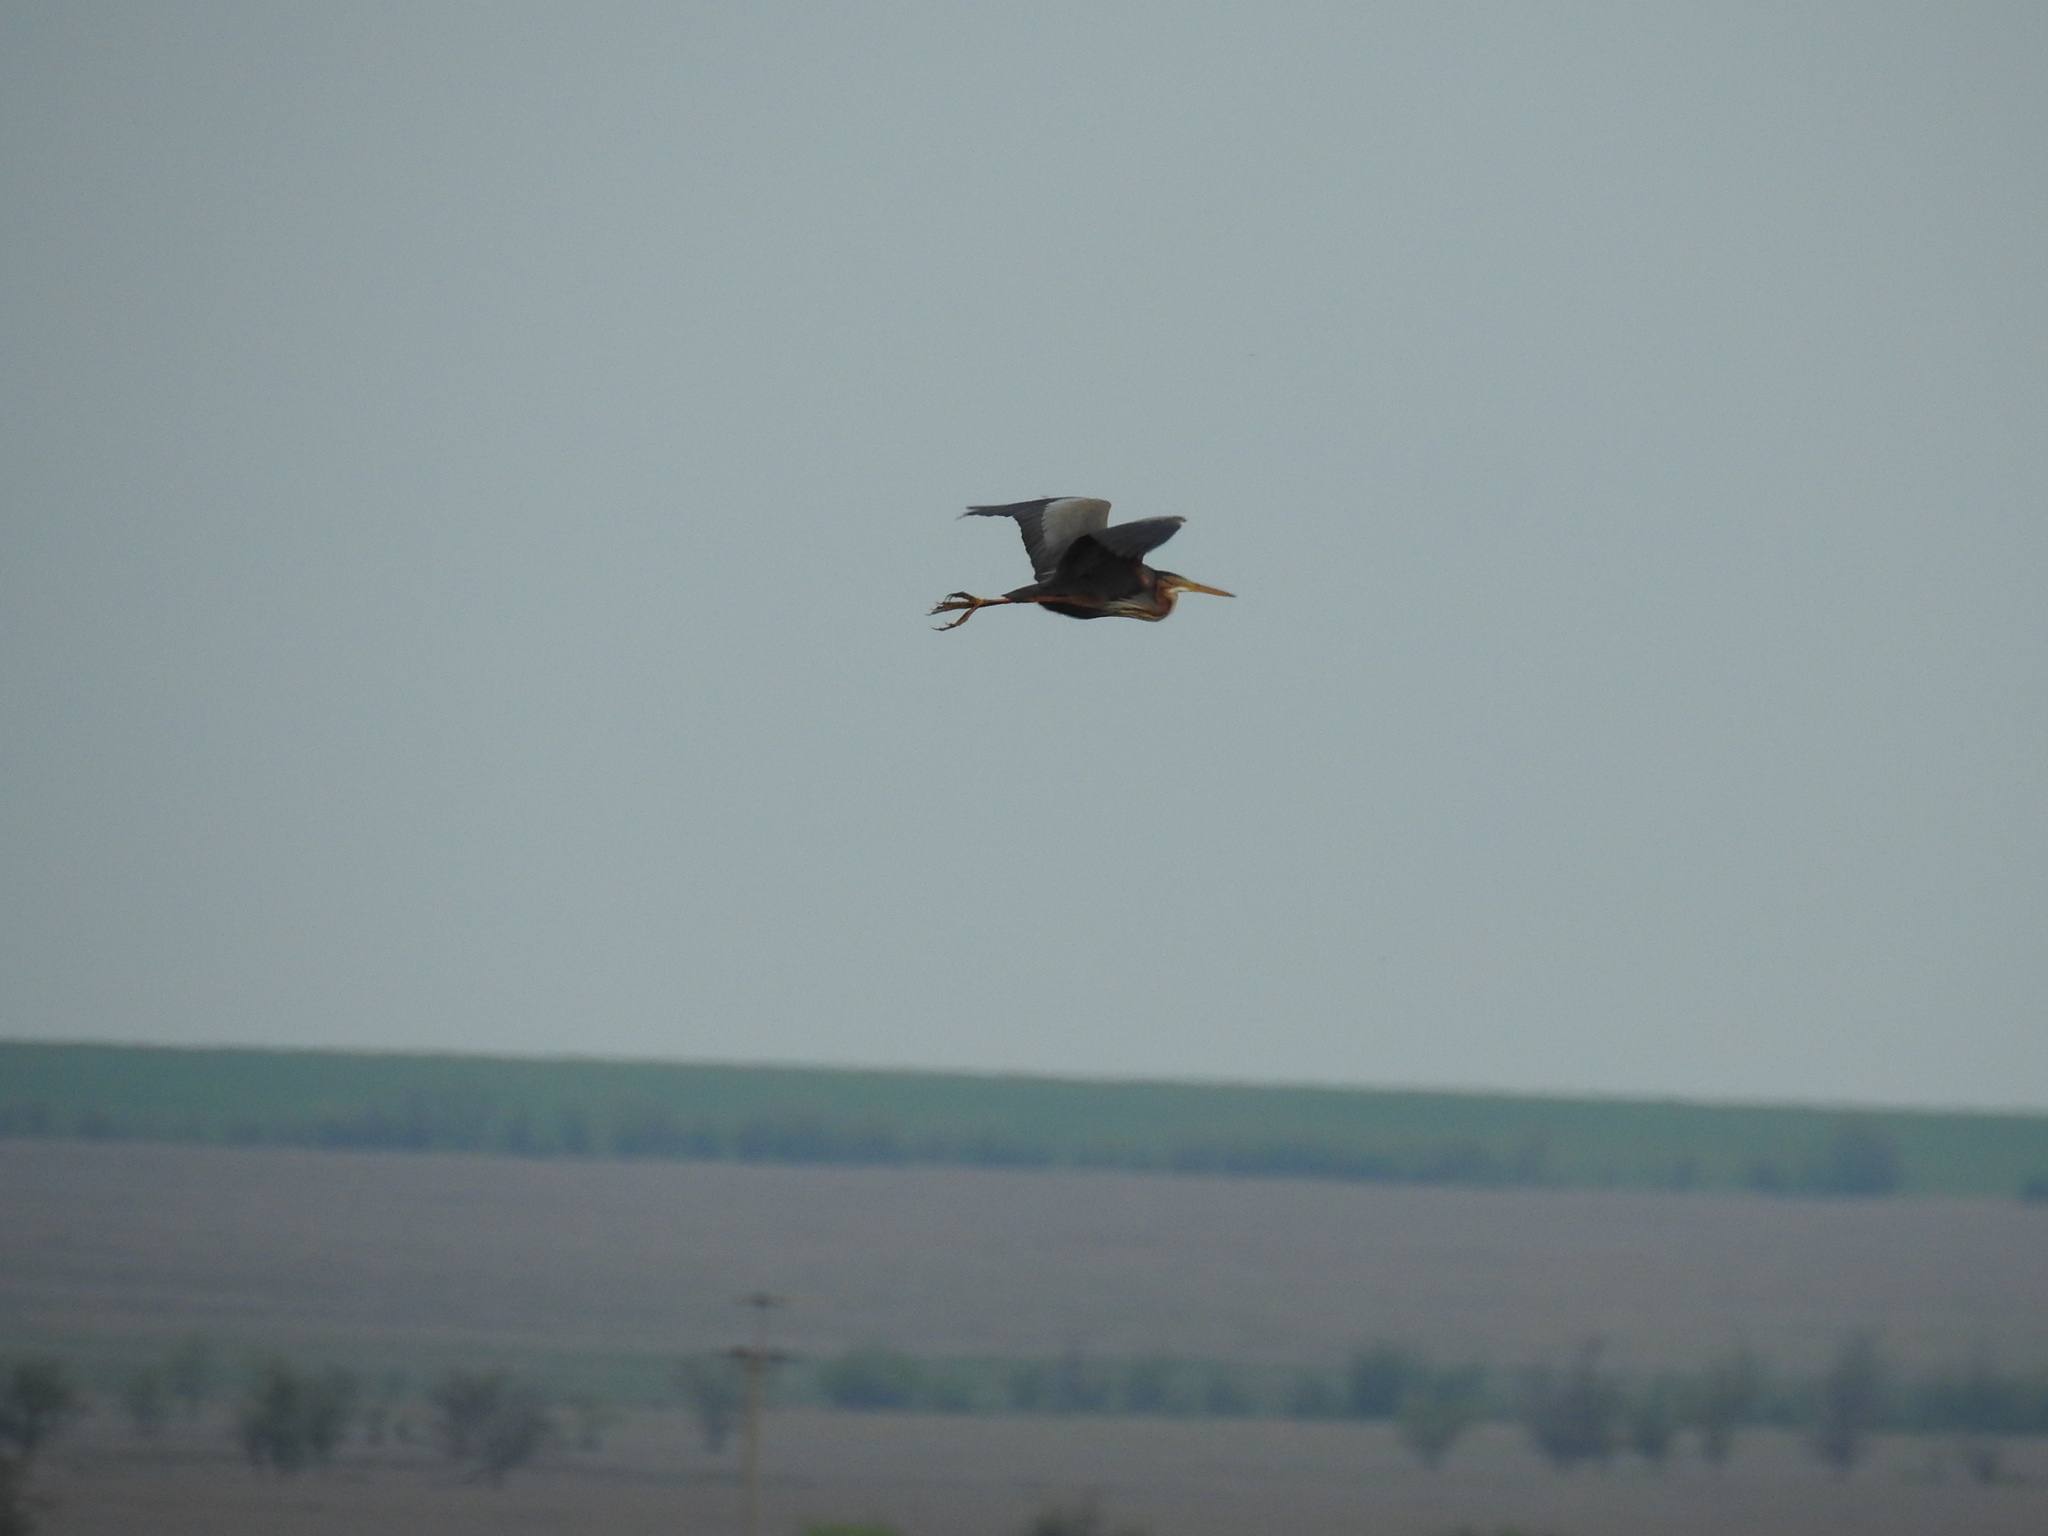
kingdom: Animalia
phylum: Chordata
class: Aves
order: Pelecaniformes
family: Ardeidae
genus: Ardea
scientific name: Ardea purpurea
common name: Purple heron
